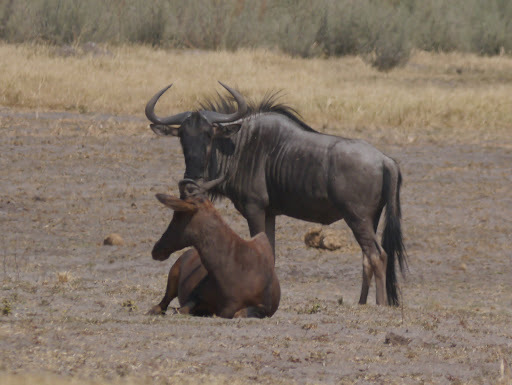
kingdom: Animalia
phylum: Chordata
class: Mammalia
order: Artiodactyla
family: Bovidae
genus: Connochaetes
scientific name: Connochaetes taurinus
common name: Blue wildebeest
